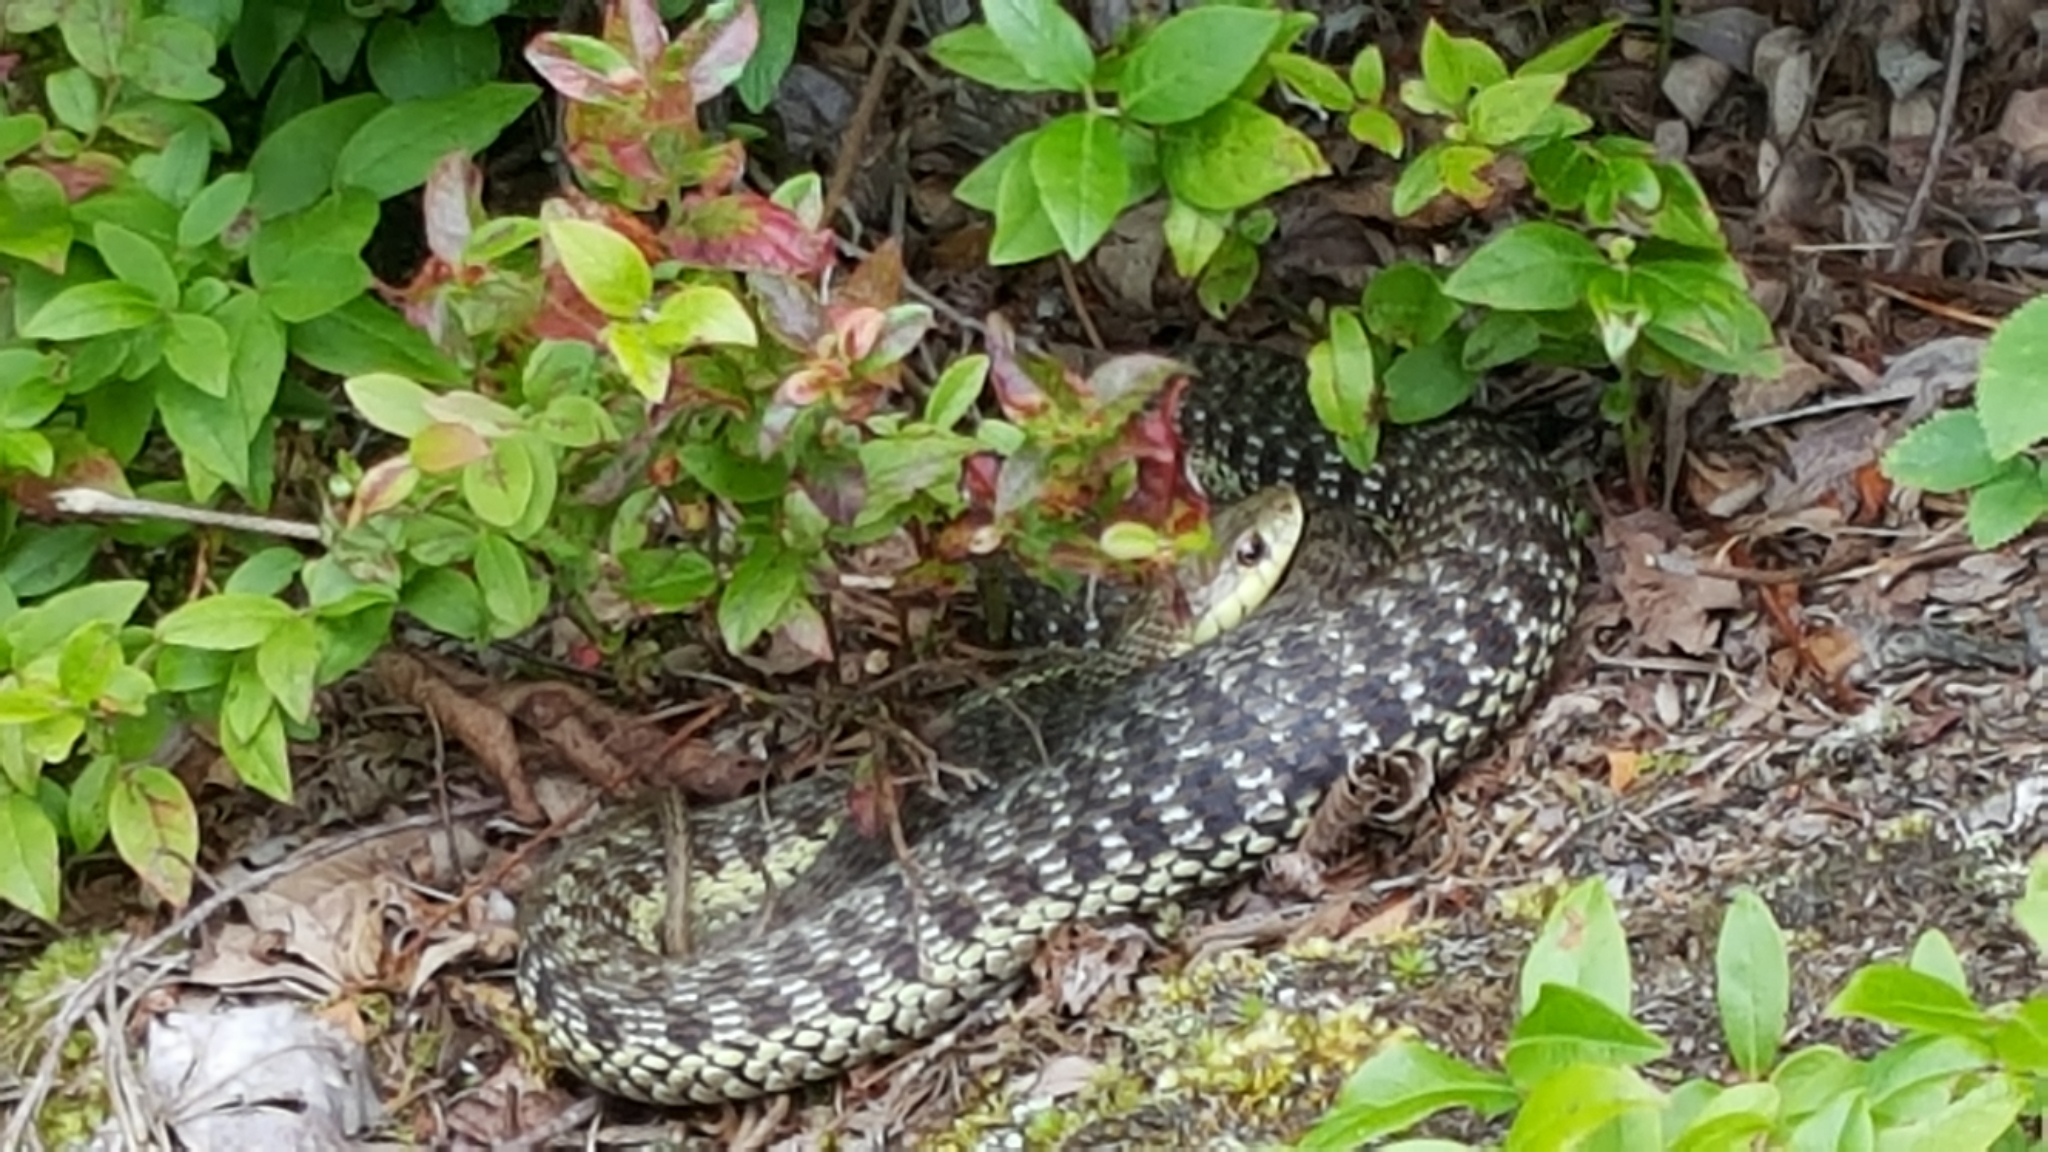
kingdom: Animalia
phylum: Chordata
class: Squamata
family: Colubridae
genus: Thamnophis
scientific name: Thamnophis sirtalis
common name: Common garter snake
